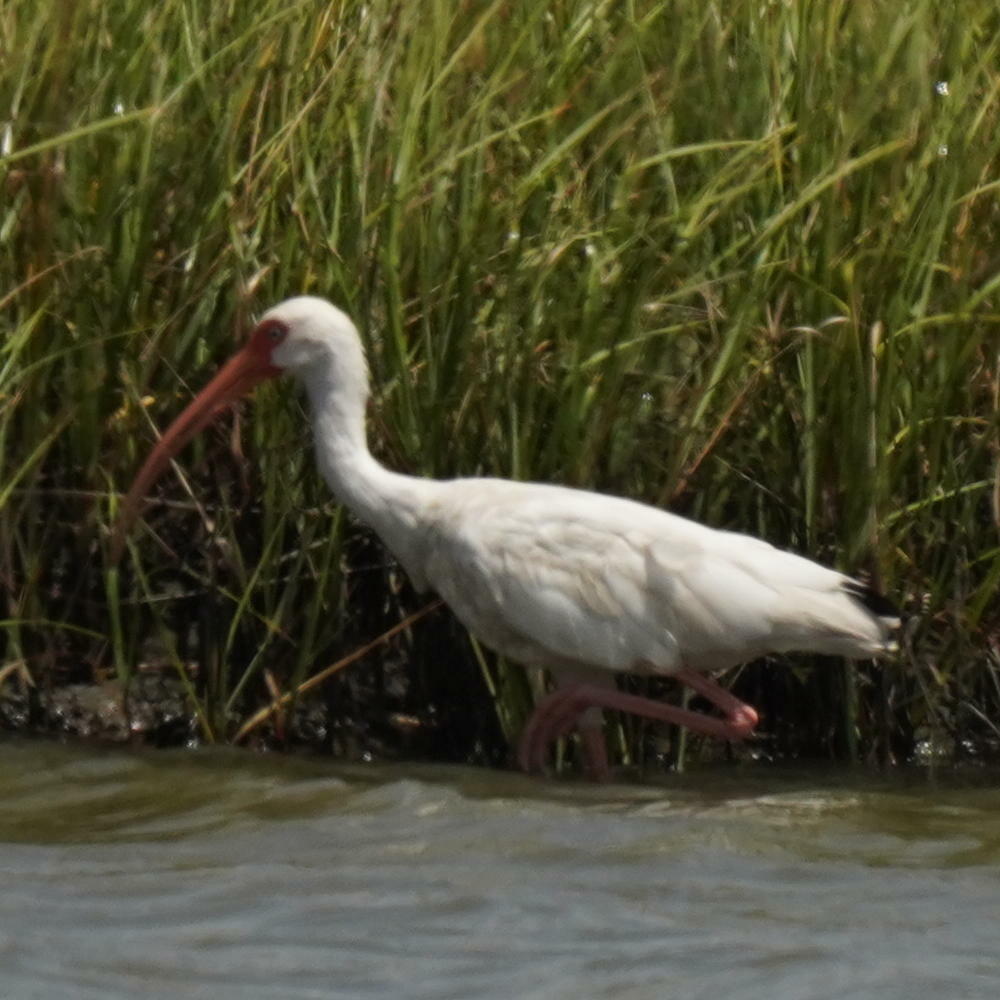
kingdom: Animalia
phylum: Chordata
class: Aves
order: Pelecaniformes
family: Threskiornithidae
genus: Eudocimus
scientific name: Eudocimus albus
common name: White ibis
